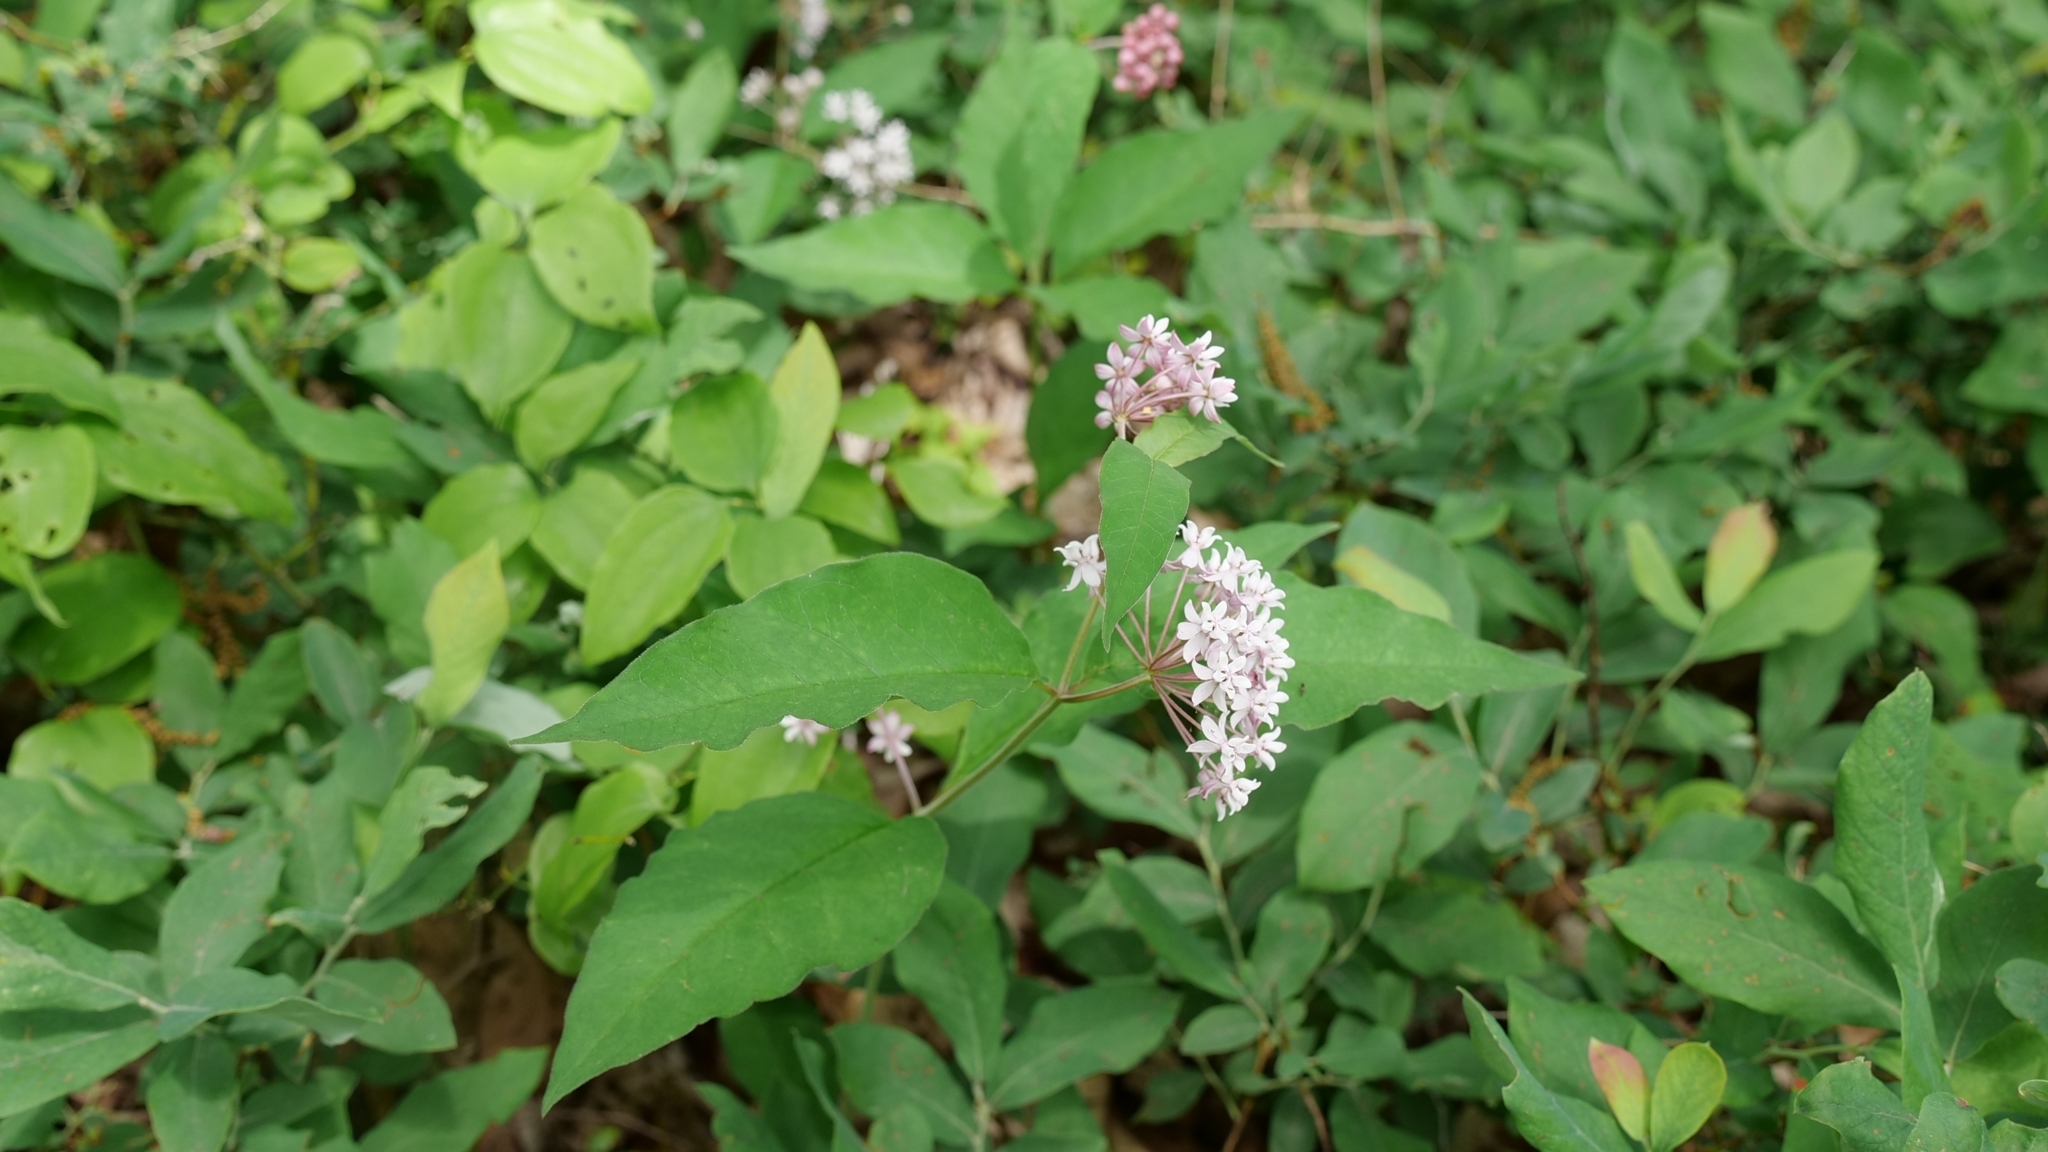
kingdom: Plantae
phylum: Tracheophyta
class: Magnoliopsida
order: Gentianales
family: Apocynaceae
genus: Asclepias
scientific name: Asclepias quadrifolia
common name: Whorled milkweed
